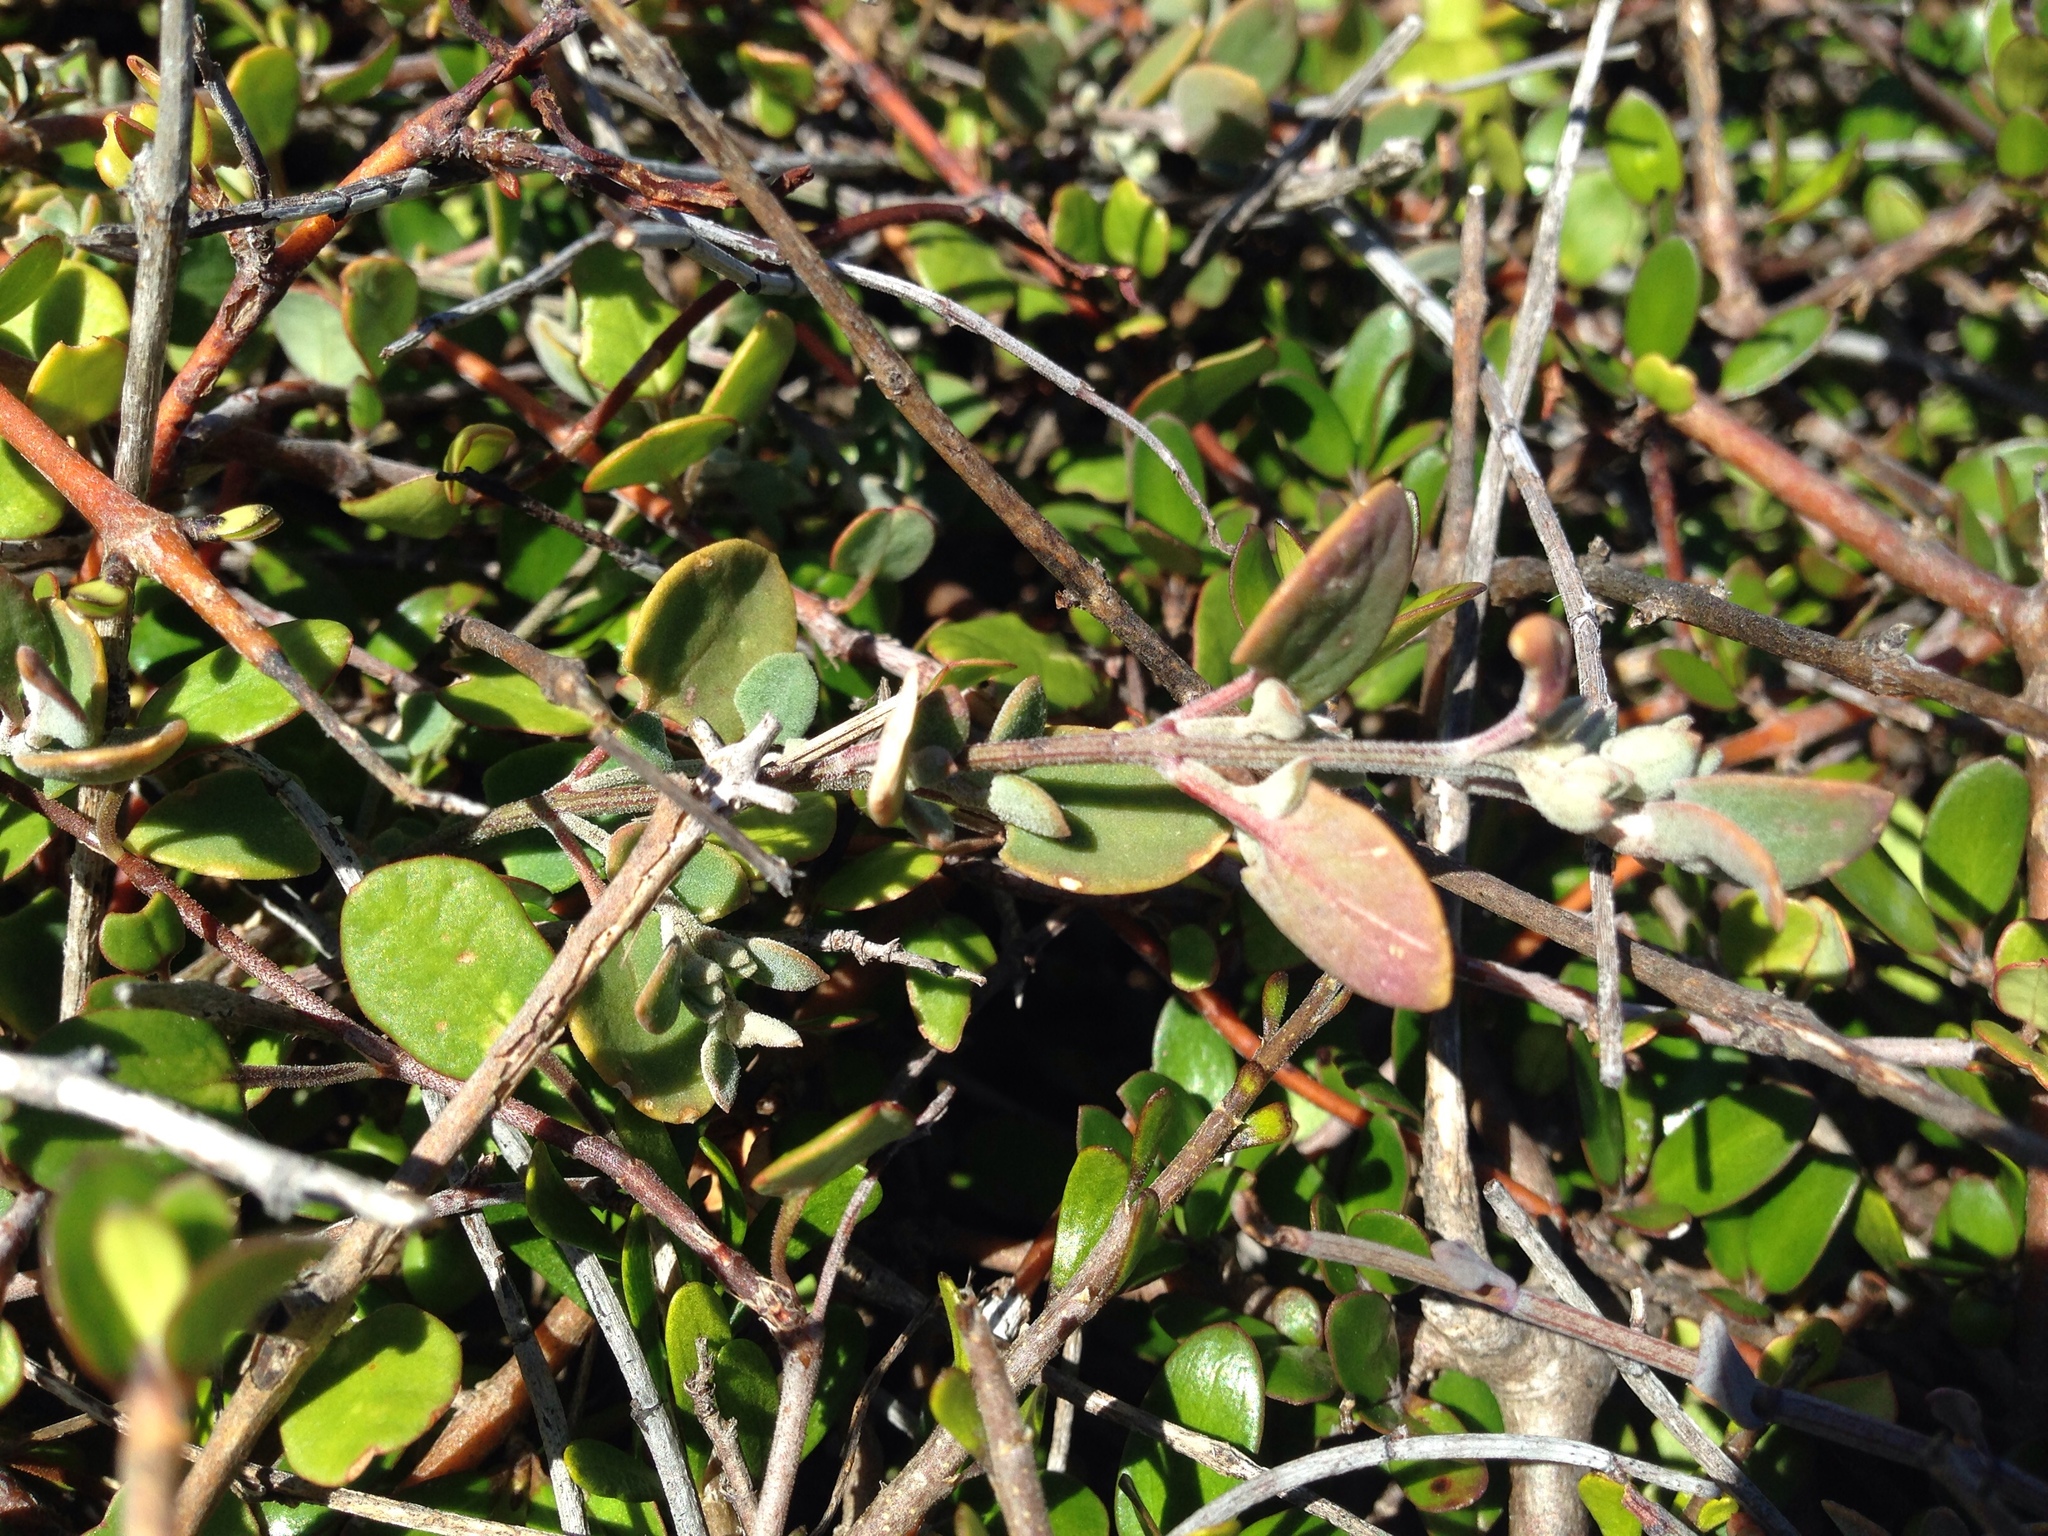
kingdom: Plantae
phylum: Tracheophyta
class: Magnoliopsida
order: Caryophyllales
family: Amaranthaceae
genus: Chenopodium
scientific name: Chenopodium triandrum
